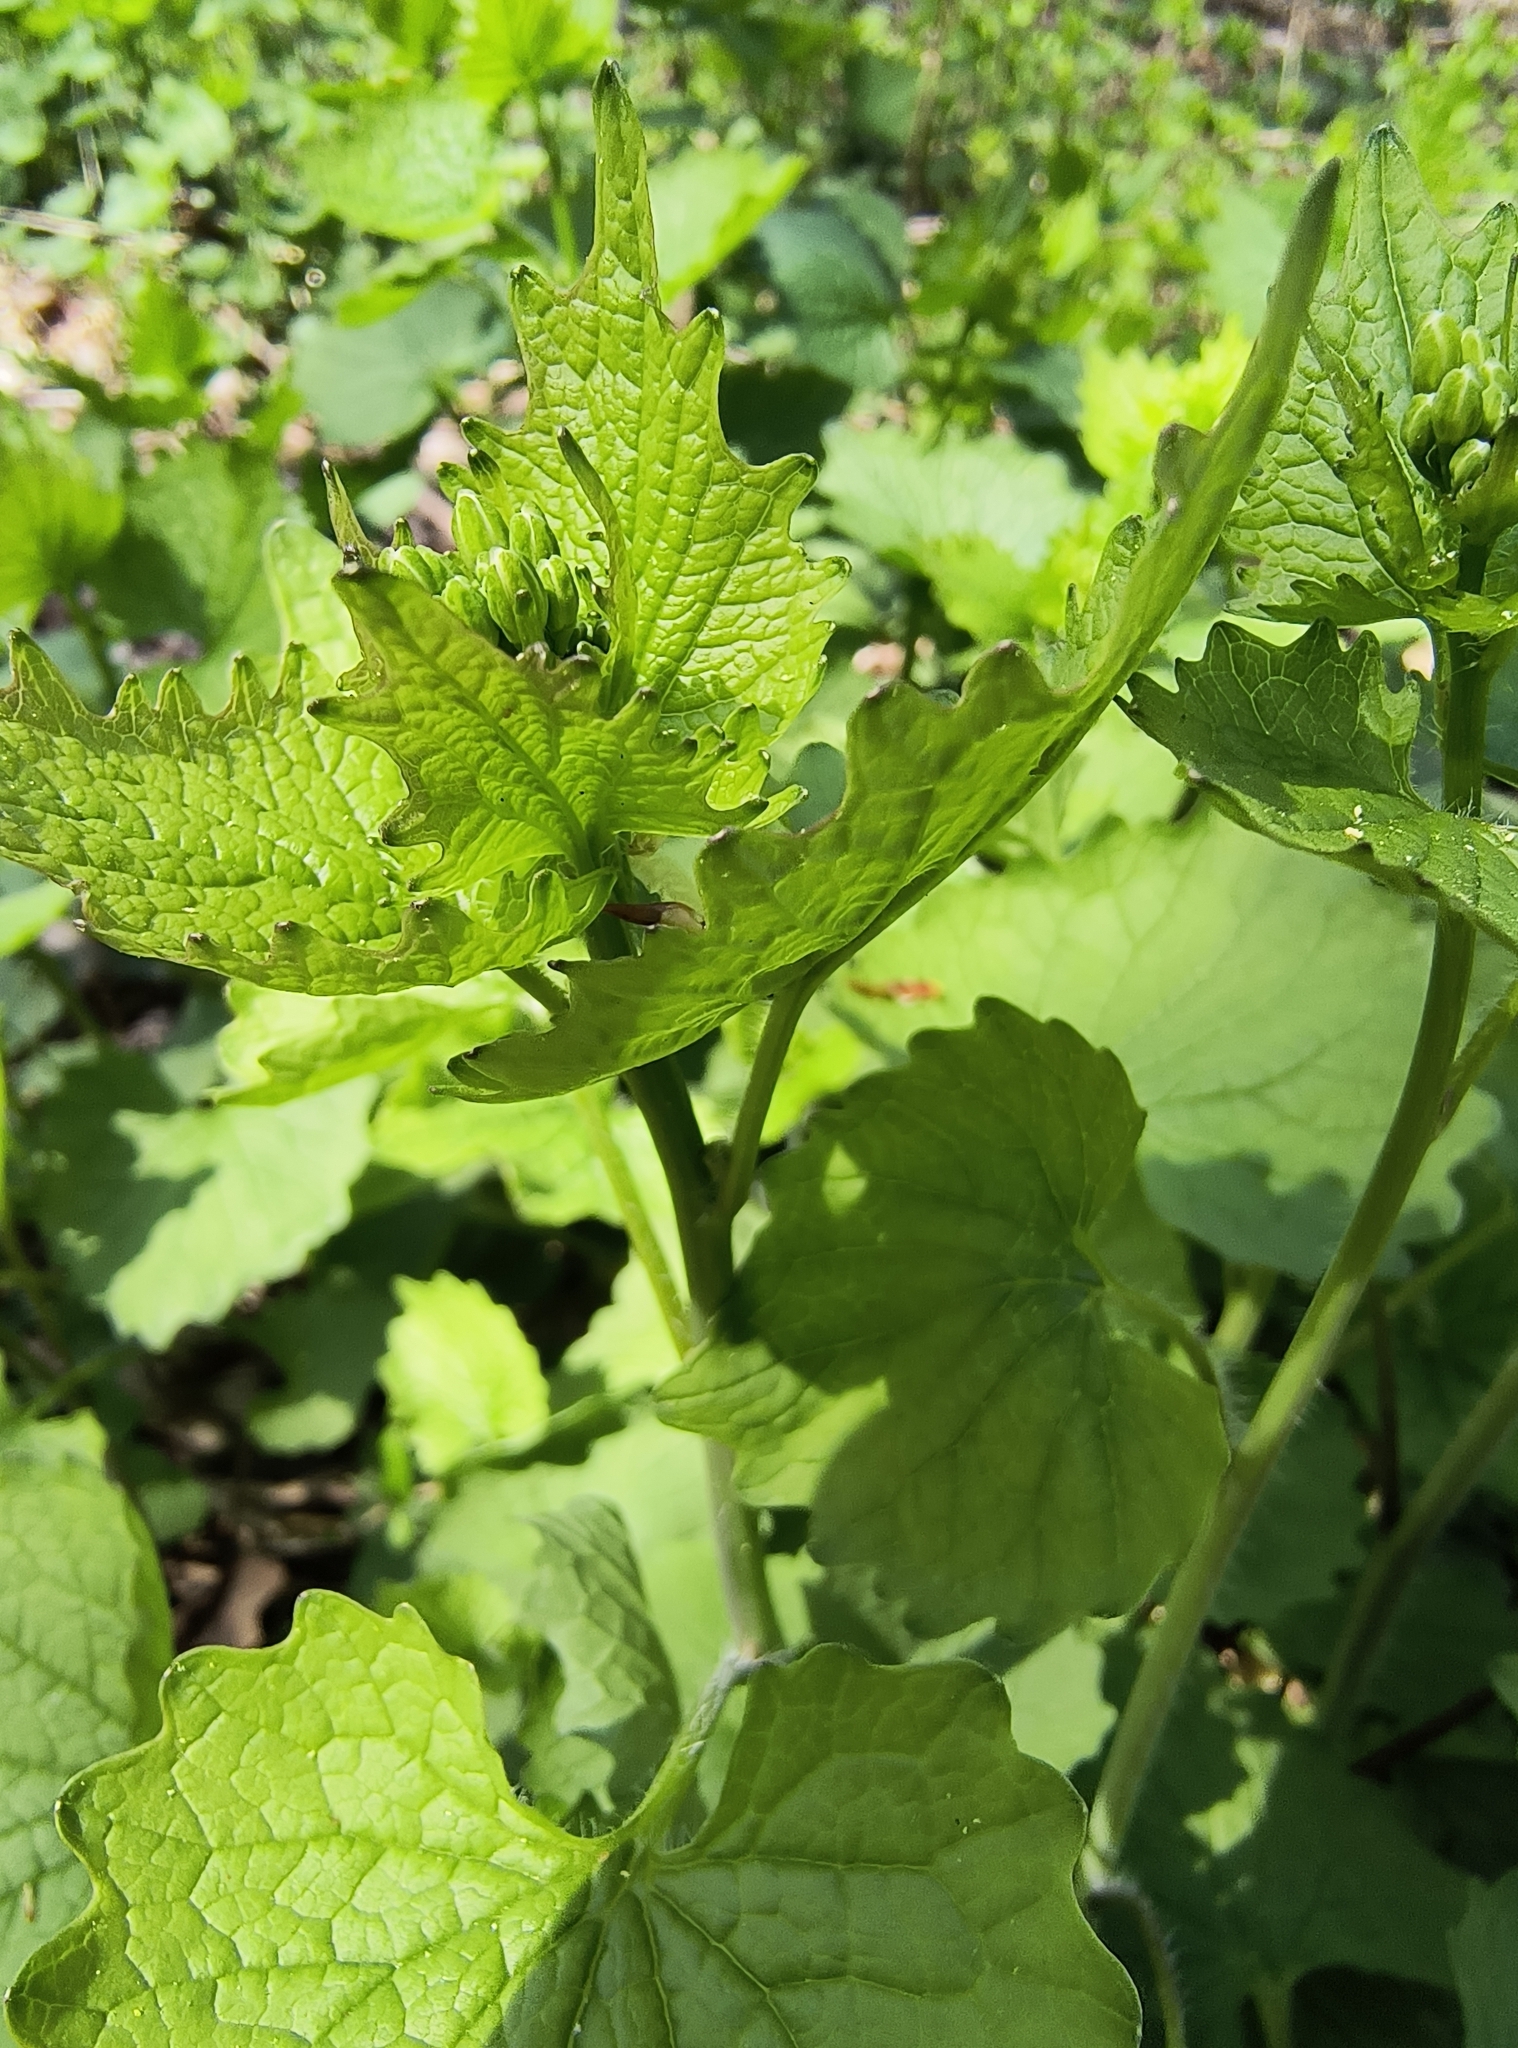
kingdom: Plantae
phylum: Tracheophyta
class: Magnoliopsida
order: Brassicales
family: Brassicaceae
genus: Alliaria
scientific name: Alliaria petiolata
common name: Garlic mustard
